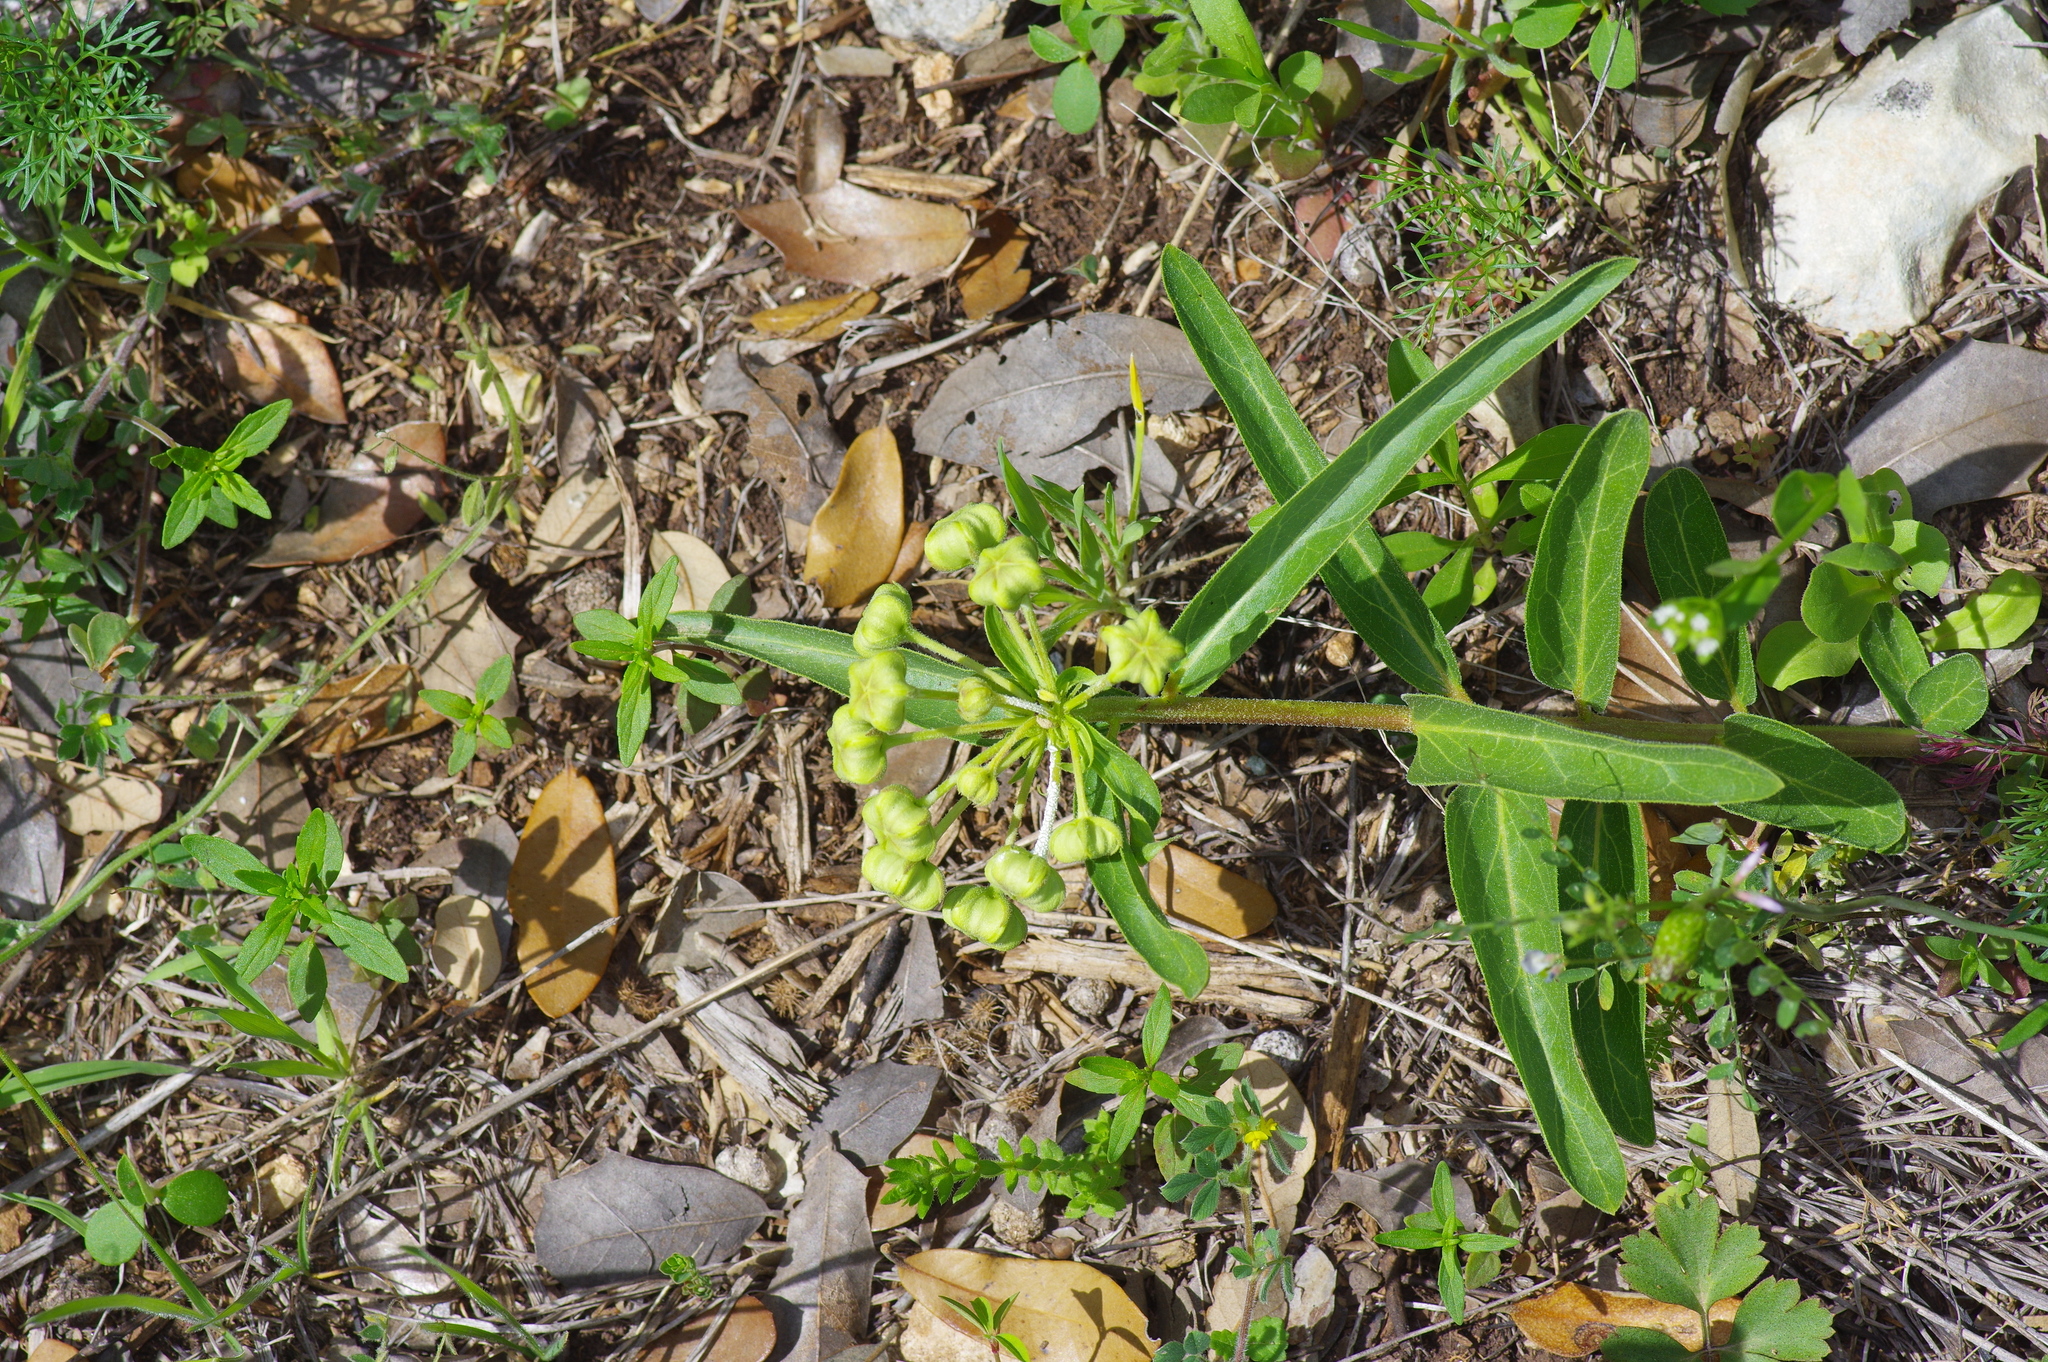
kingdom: Plantae
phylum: Tracheophyta
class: Magnoliopsida
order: Gentianales
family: Apocynaceae
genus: Asclepias
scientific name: Asclepias asperula
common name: Antelope horns
